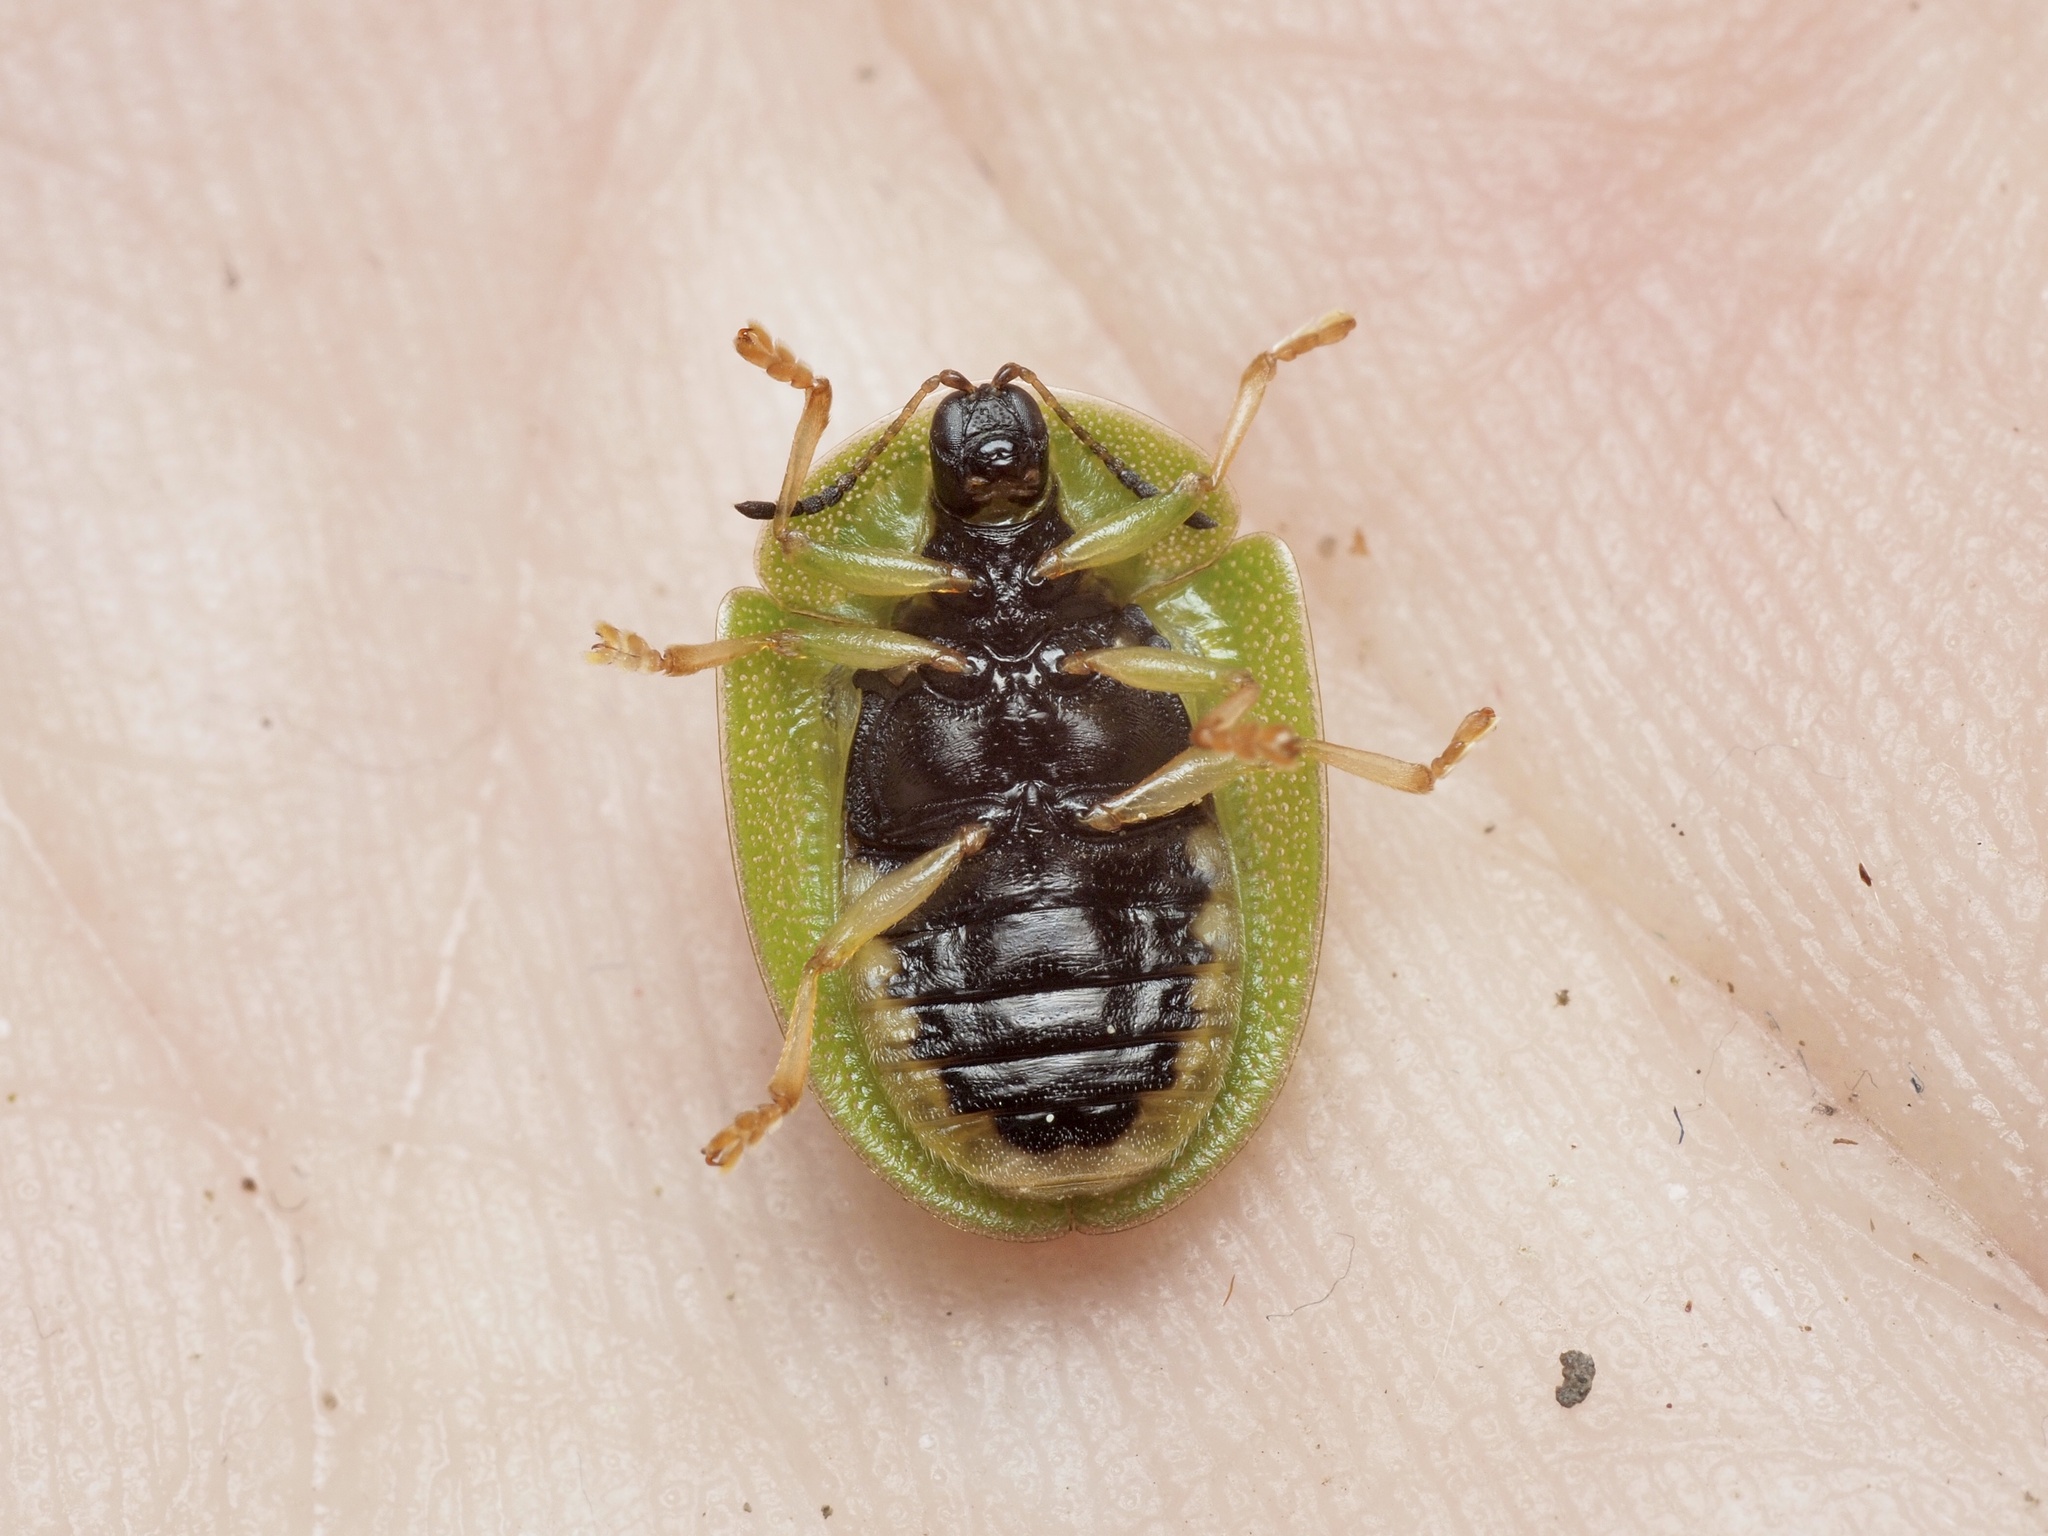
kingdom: Animalia
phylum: Arthropoda
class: Insecta
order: Coleoptera
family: Chrysomelidae
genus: Cassida
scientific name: Cassida viridis
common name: Green tortoise beetle
